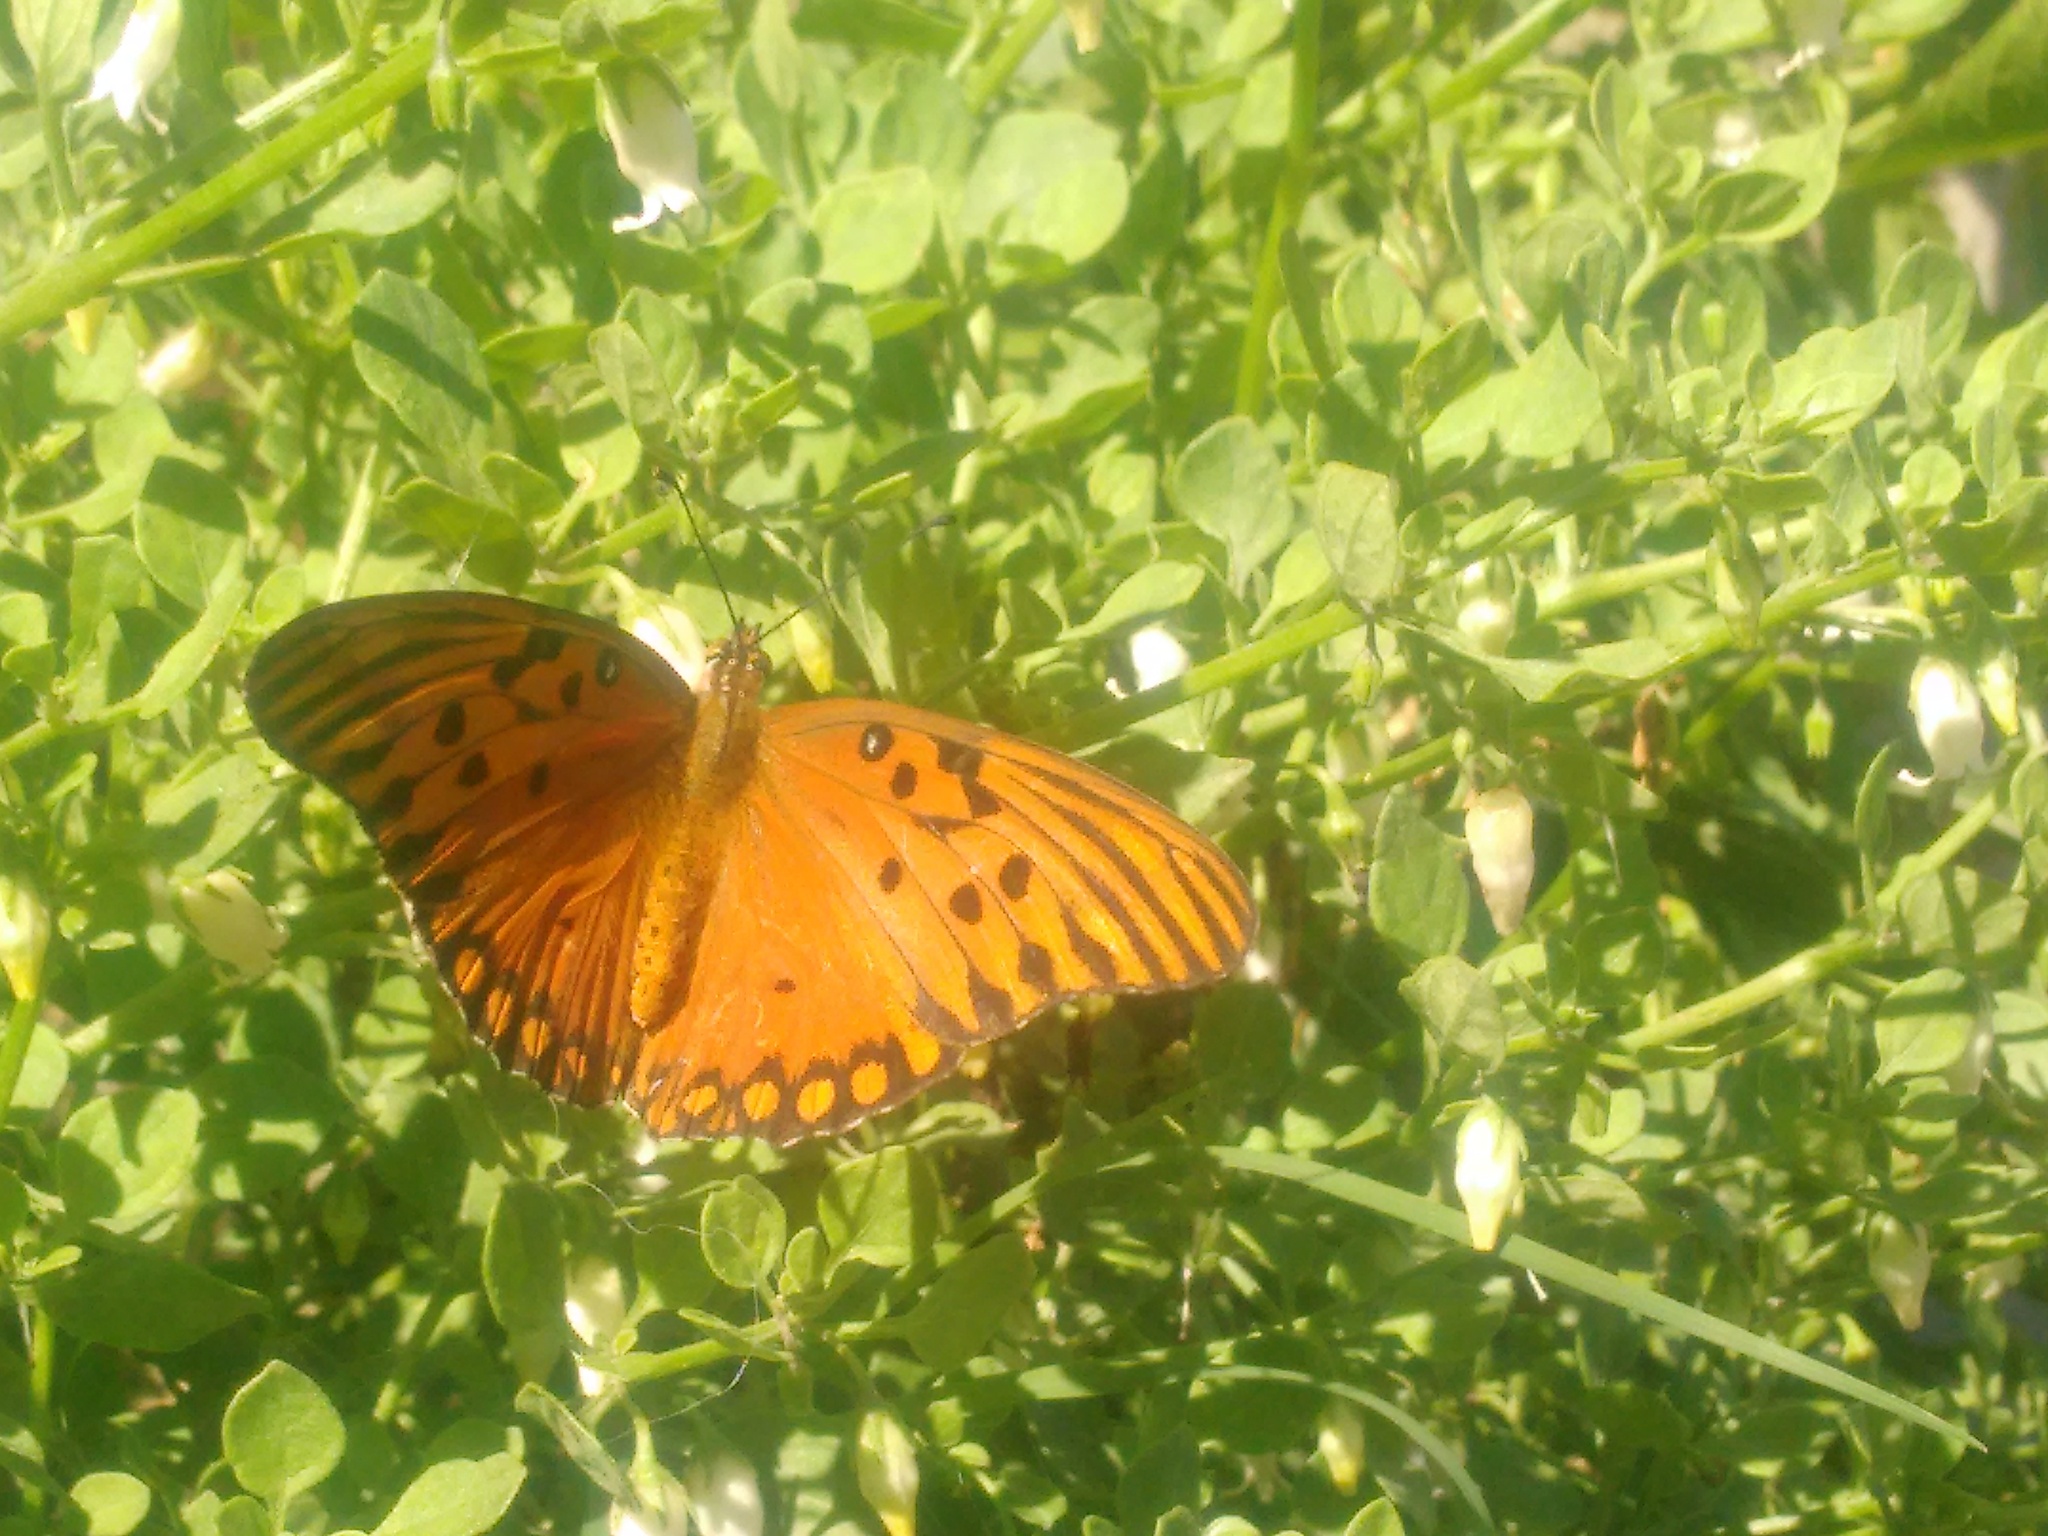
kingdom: Animalia
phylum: Arthropoda
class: Insecta
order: Lepidoptera
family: Nymphalidae
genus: Dione
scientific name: Dione vanillae
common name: Gulf fritillary
